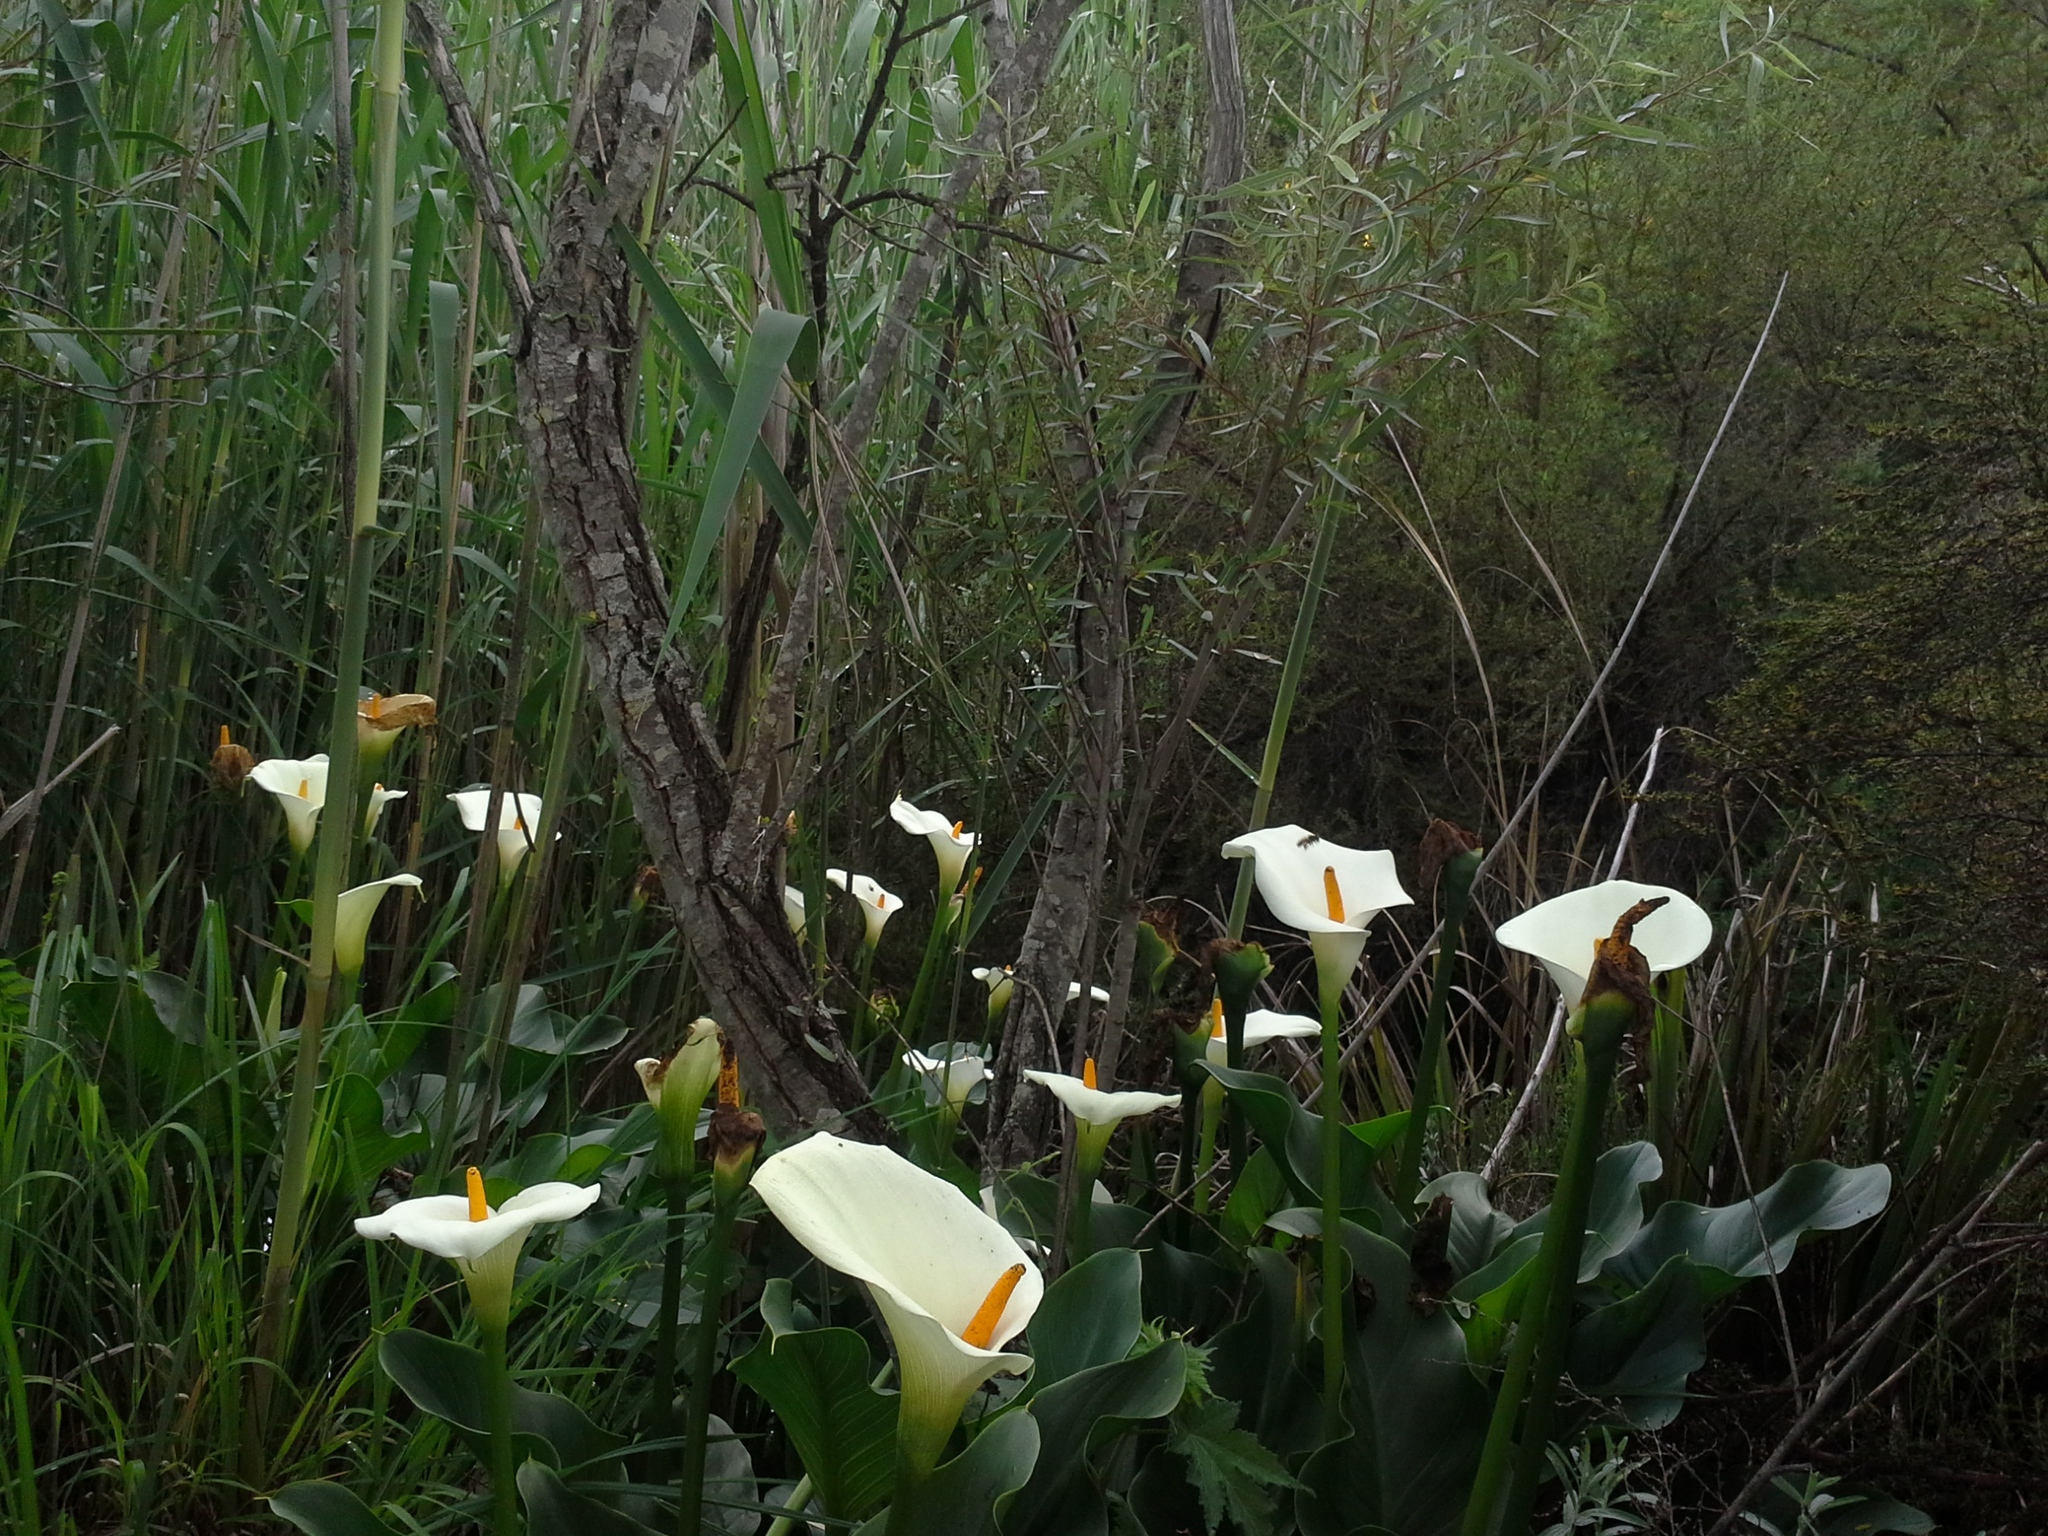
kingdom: Plantae
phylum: Tracheophyta
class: Liliopsida
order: Alismatales
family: Araceae
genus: Zantedeschia
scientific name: Zantedeschia aethiopica
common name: Altar-lily
